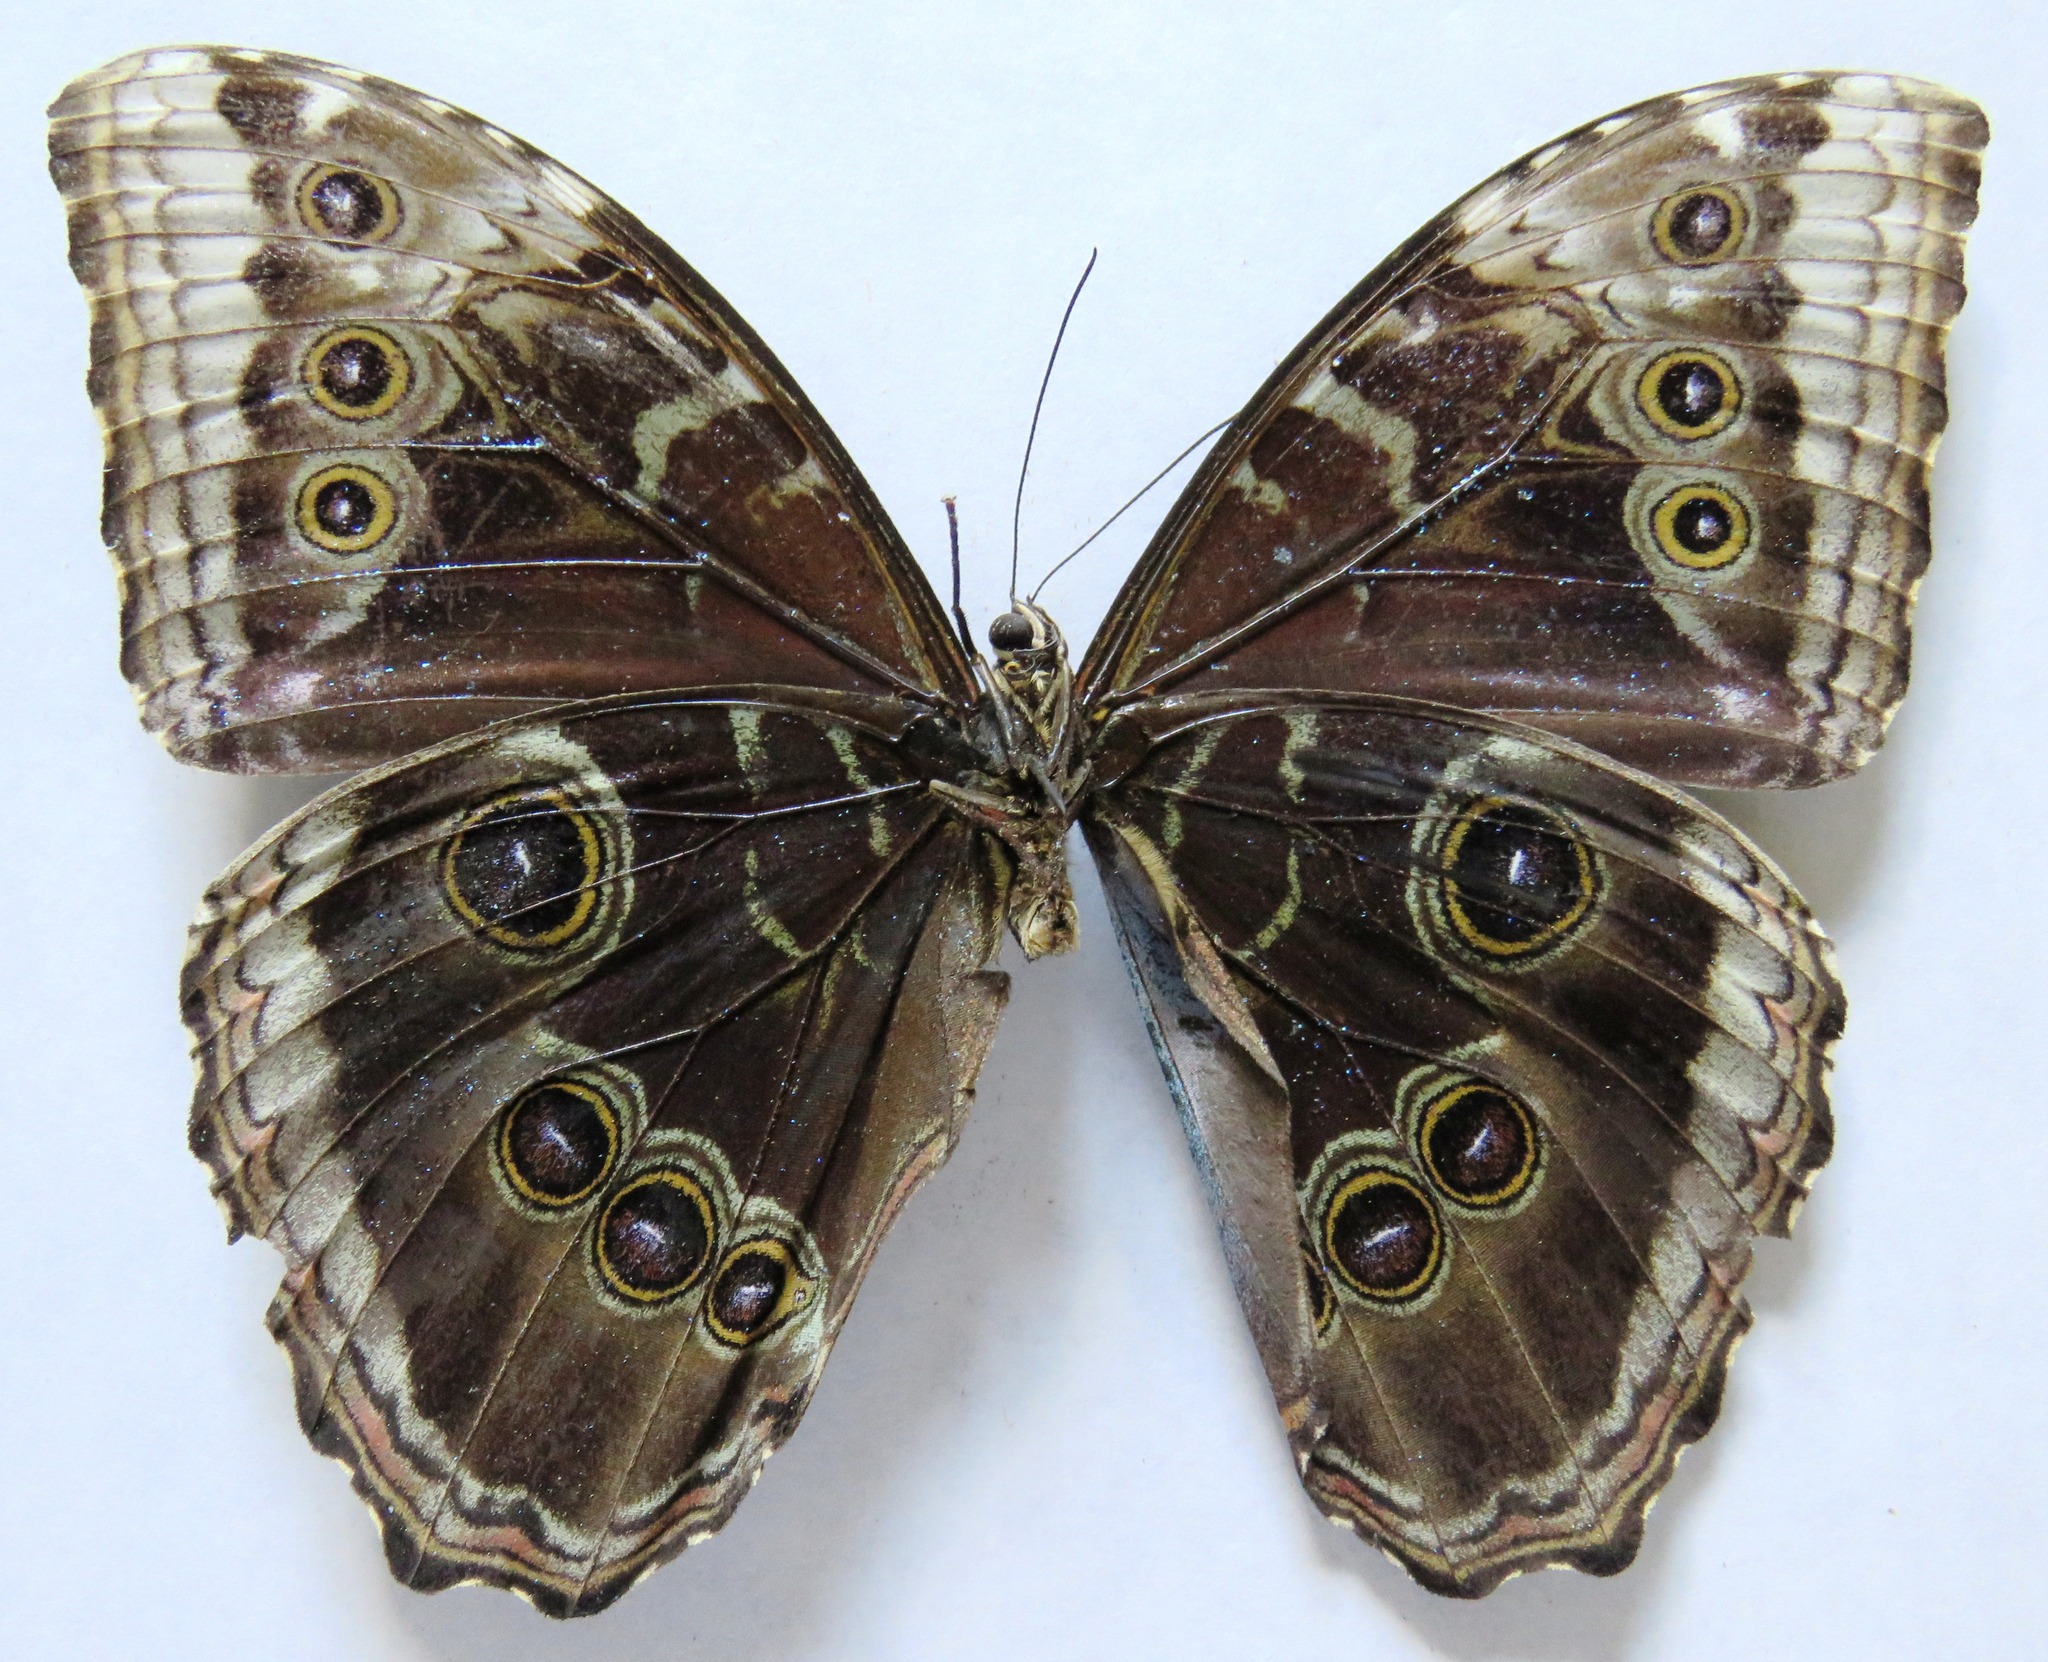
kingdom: Animalia
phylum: Arthropoda
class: Insecta
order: Lepidoptera
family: Nymphalidae
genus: Morpho
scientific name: Morpho helenor
